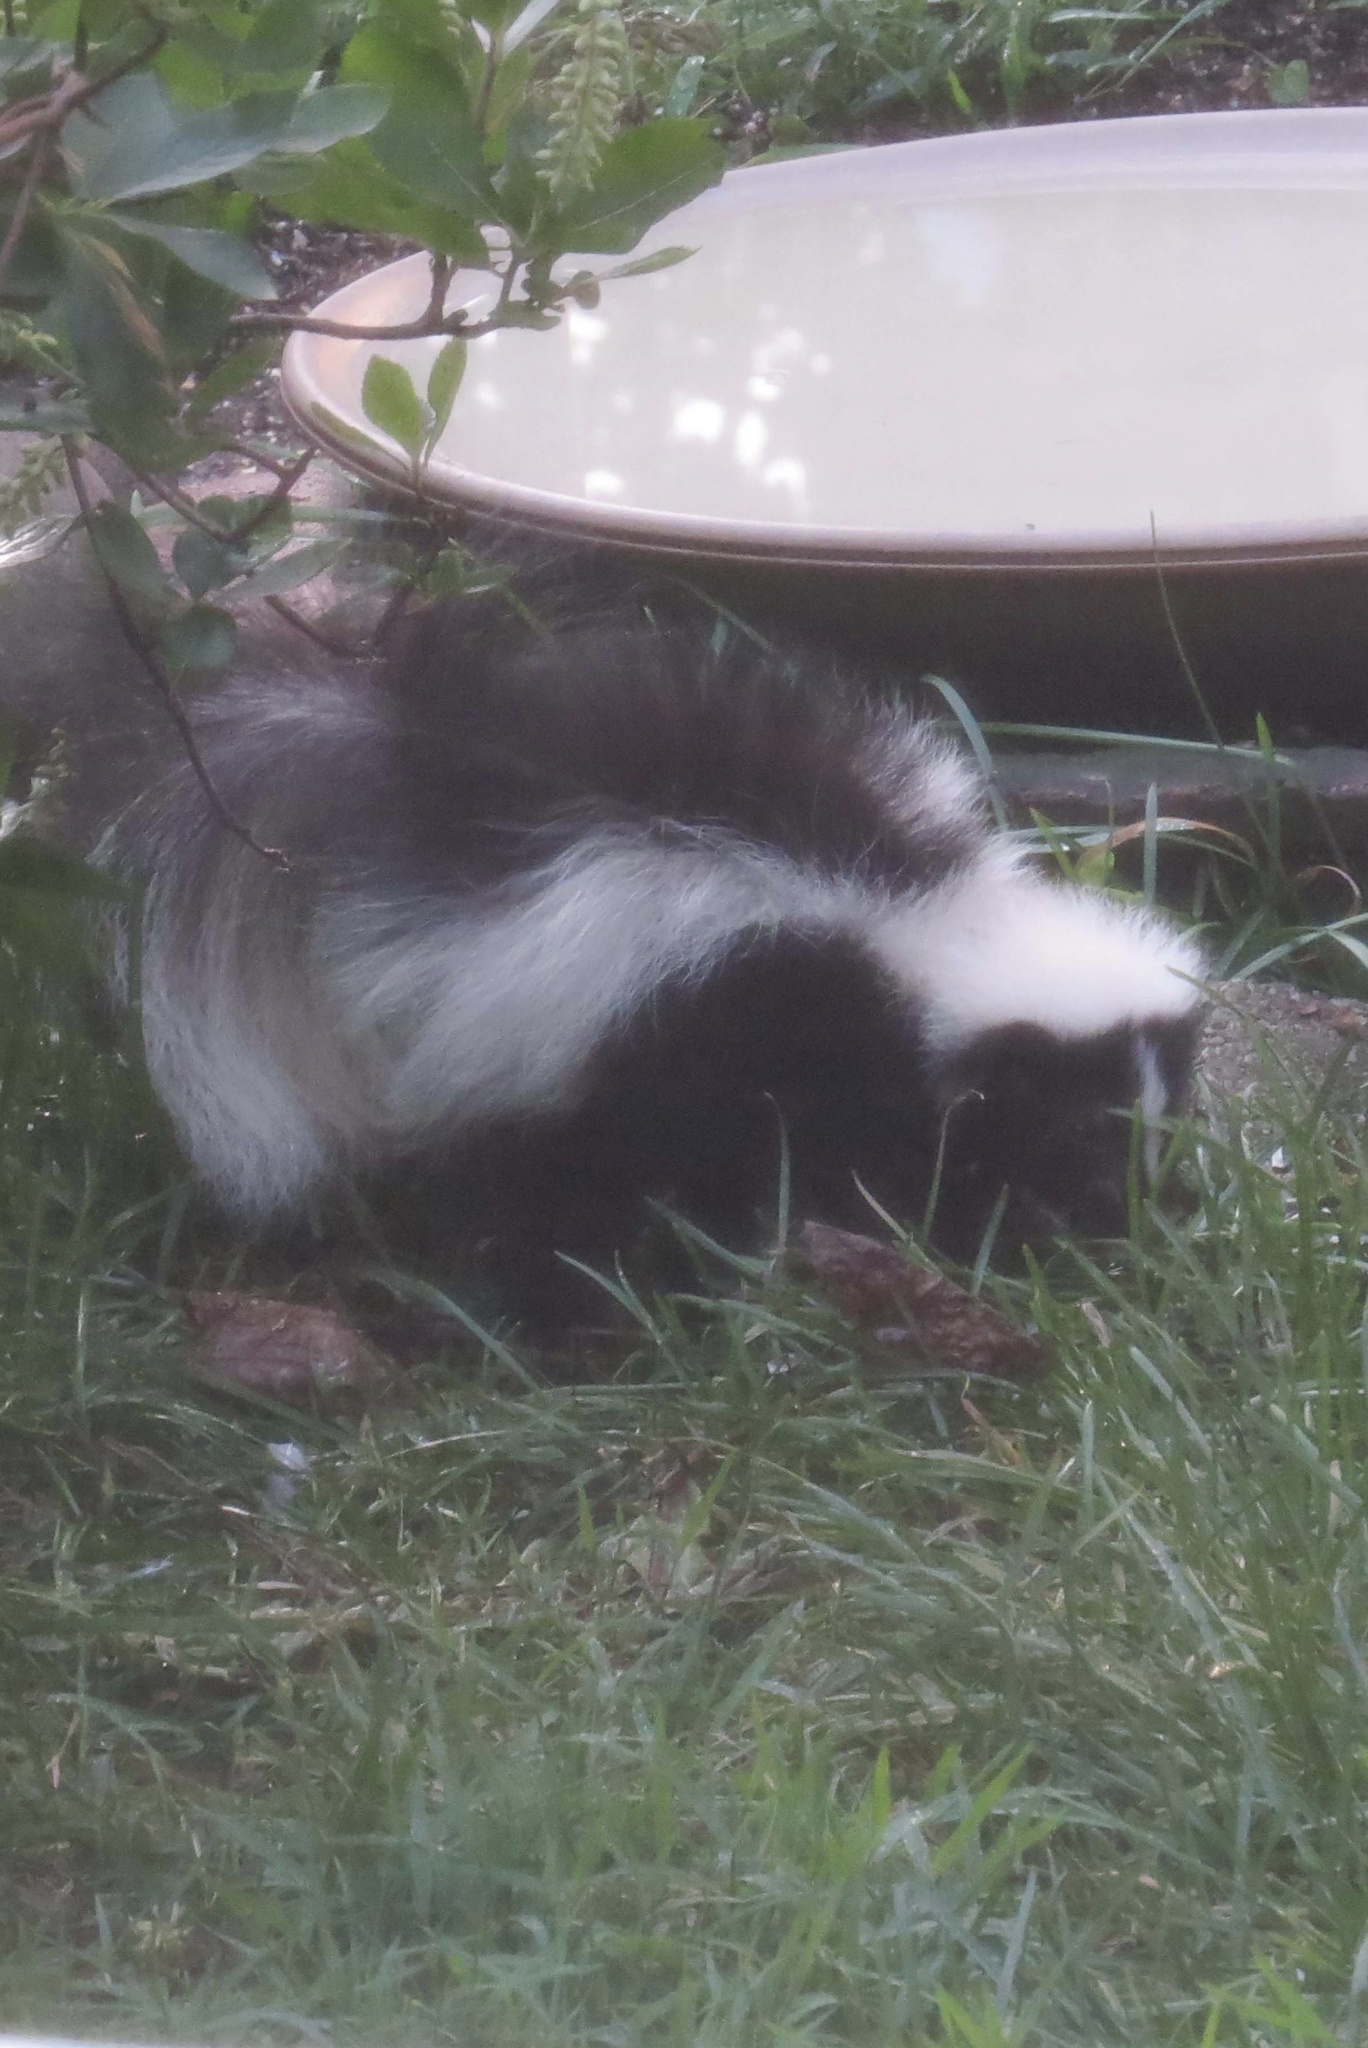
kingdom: Animalia
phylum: Chordata
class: Mammalia
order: Carnivora
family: Mephitidae
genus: Mephitis
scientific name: Mephitis mephitis
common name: Striped skunk
